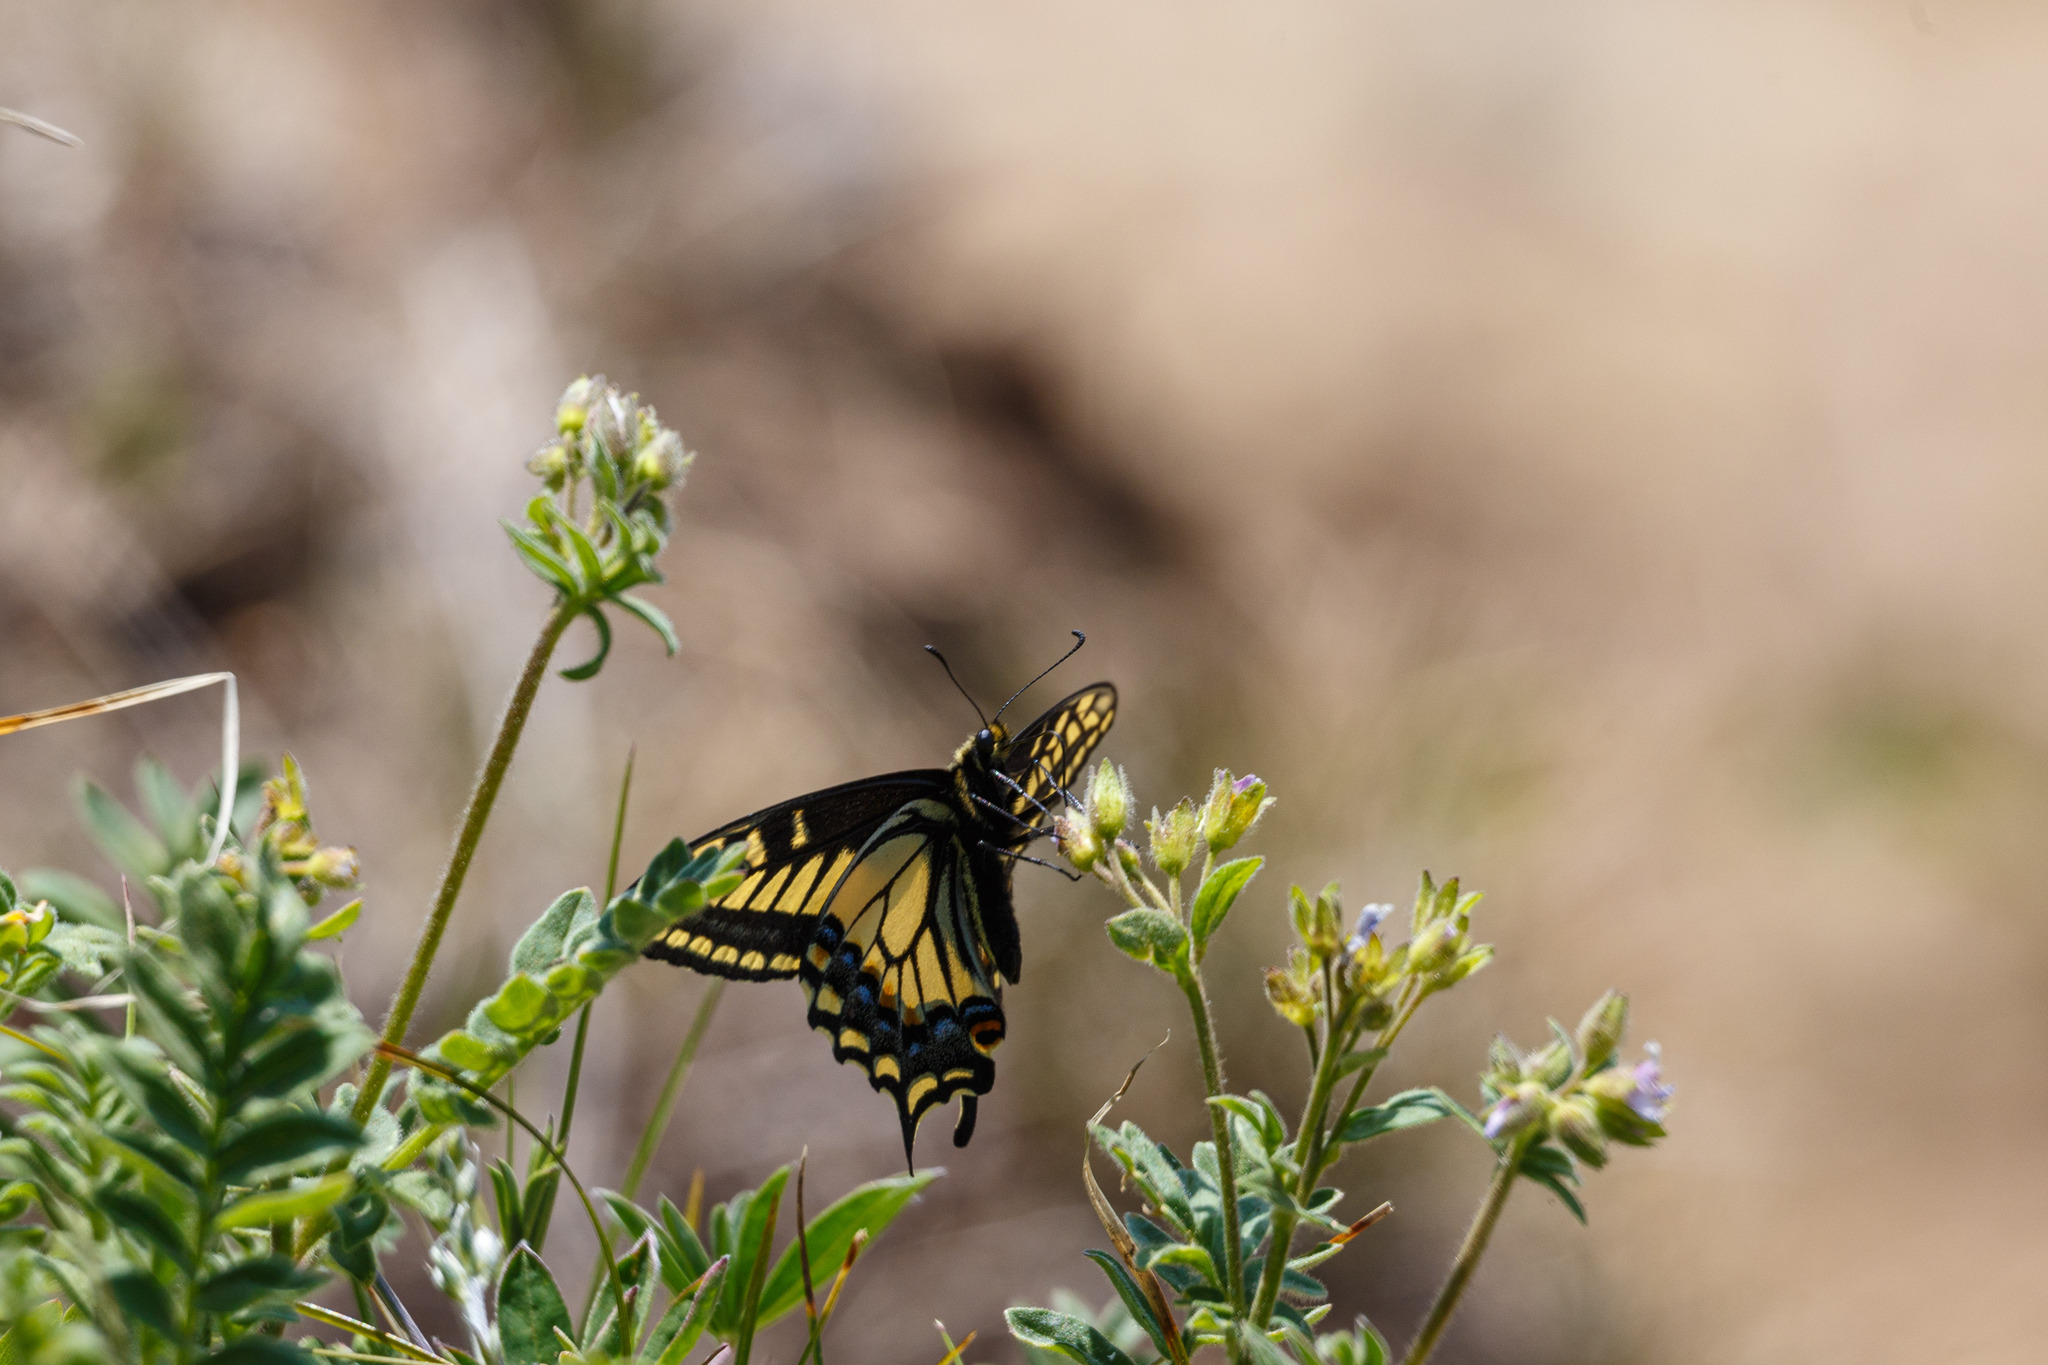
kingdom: Animalia
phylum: Arthropoda
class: Insecta
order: Lepidoptera
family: Papilionidae
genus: Papilio
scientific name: Papilio zelicaon
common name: Anise swallowtail
